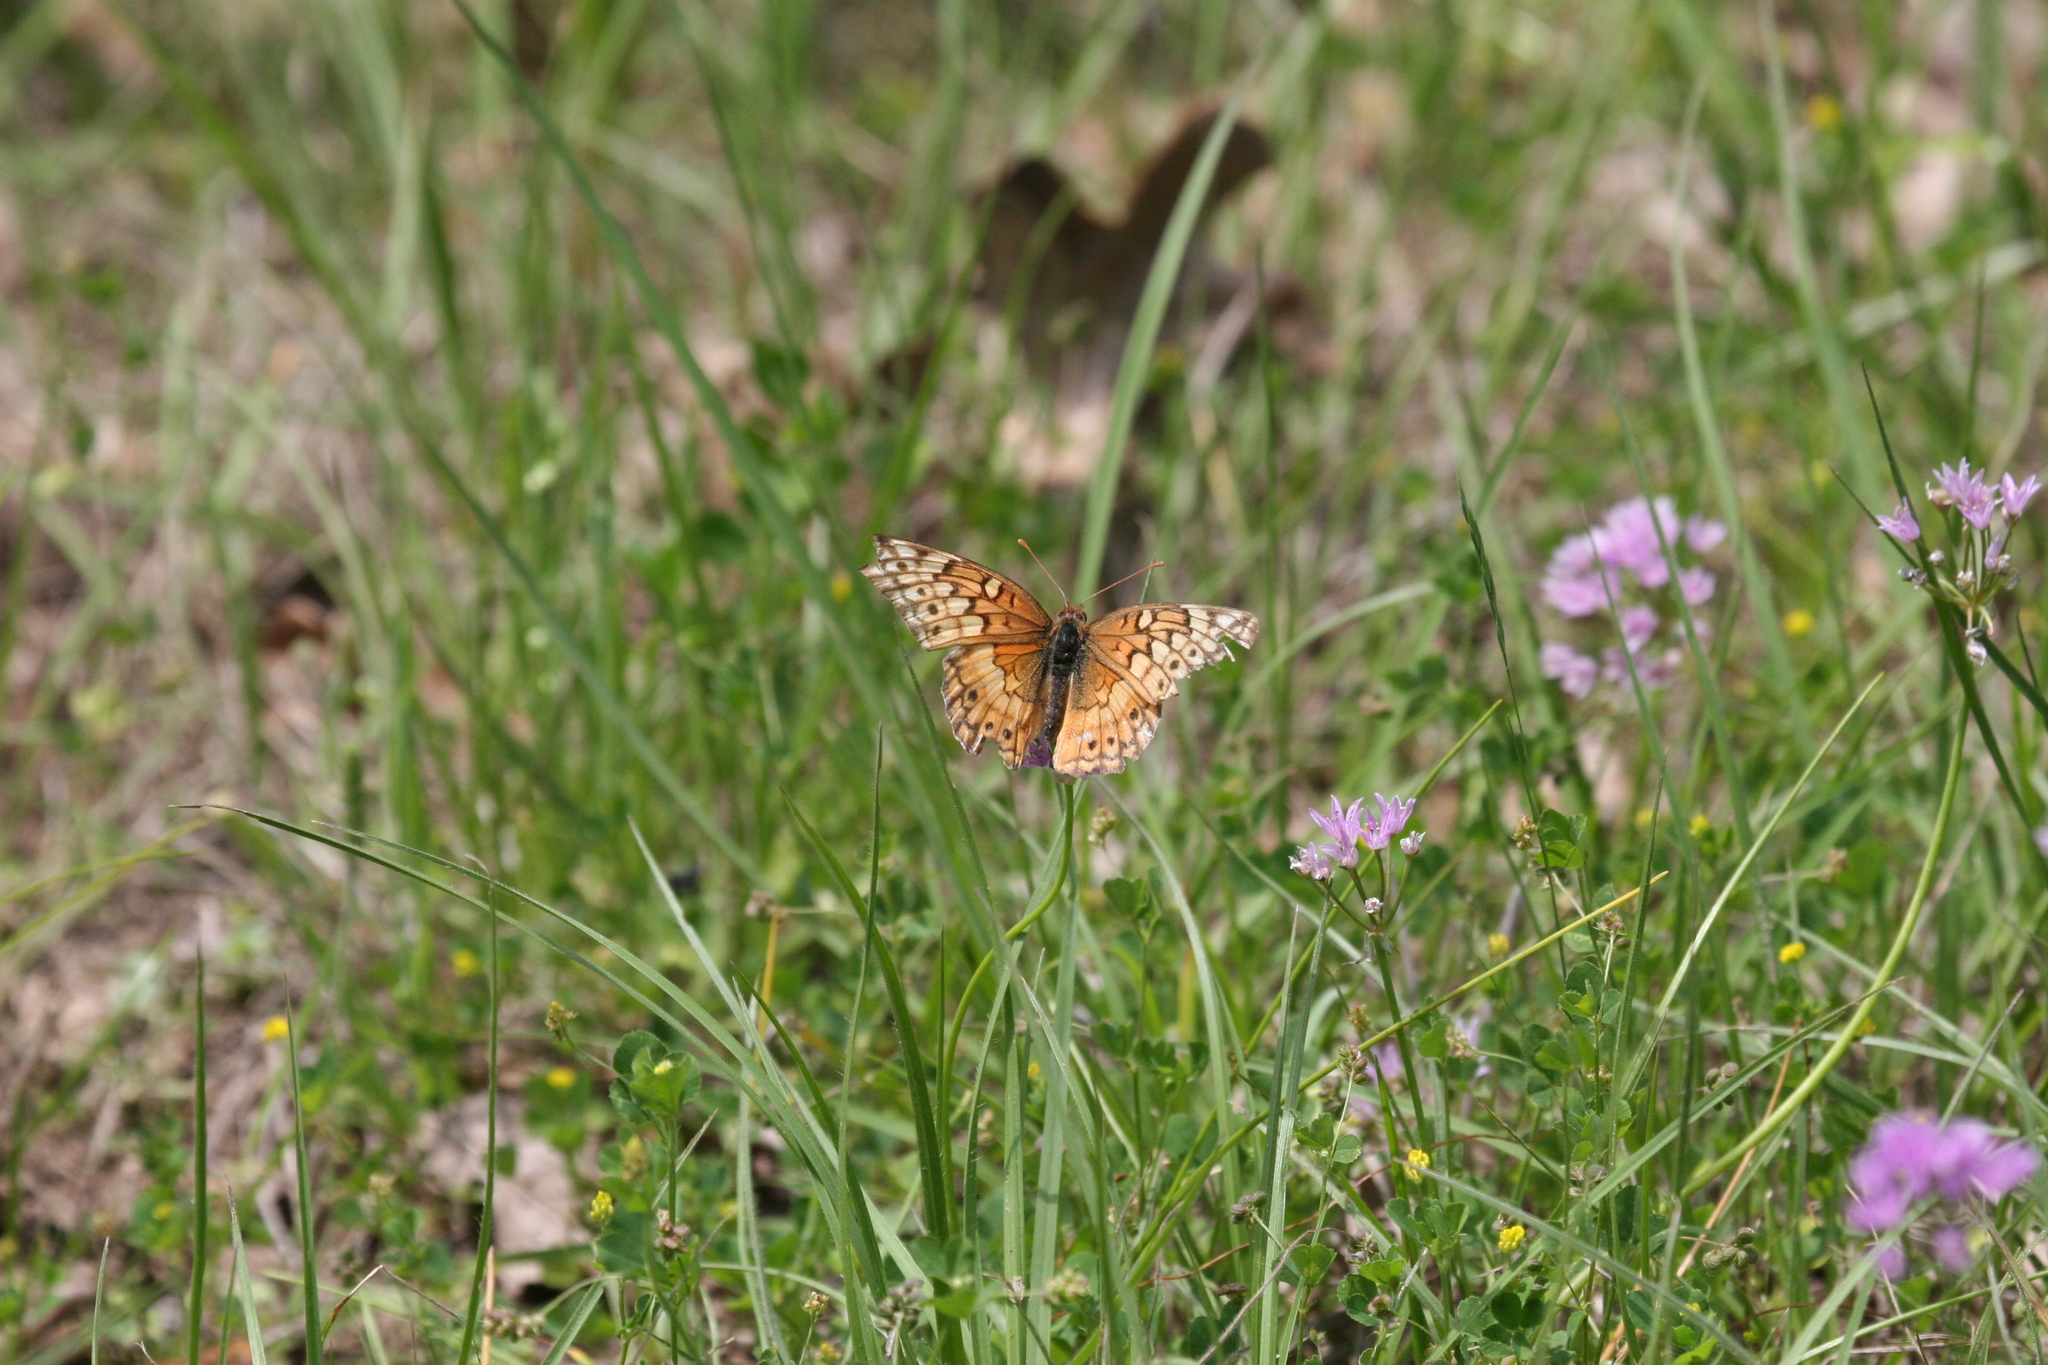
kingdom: Animalia
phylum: Arthropoda
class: Insecta
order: Lepidoptera
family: Nymphalidae
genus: Euptoieta
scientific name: Euptoieta claudia
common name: Variegated fritillary
